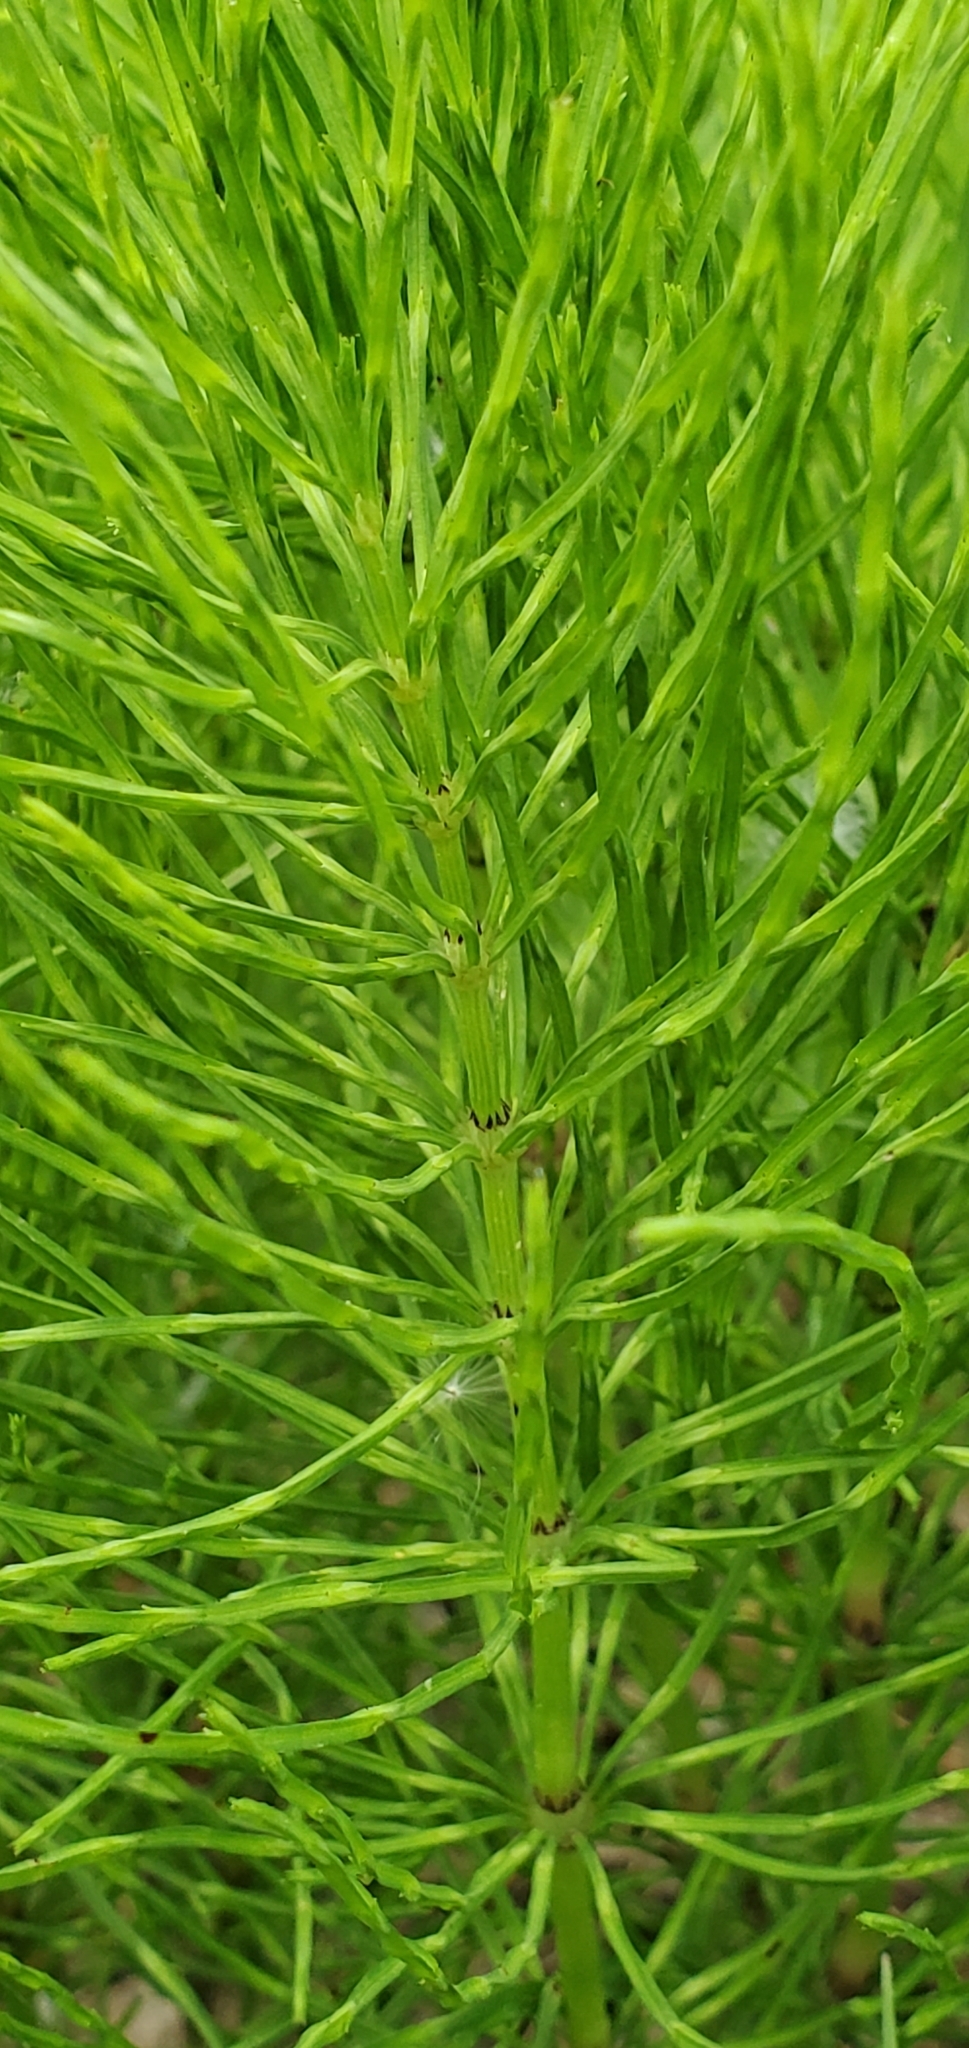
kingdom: Plantae
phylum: Tracheophyta
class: Polypodiopsida
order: Equisetales
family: Equisetaceae
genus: Equisetum
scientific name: Equisetum arvense
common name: Field horsetail
